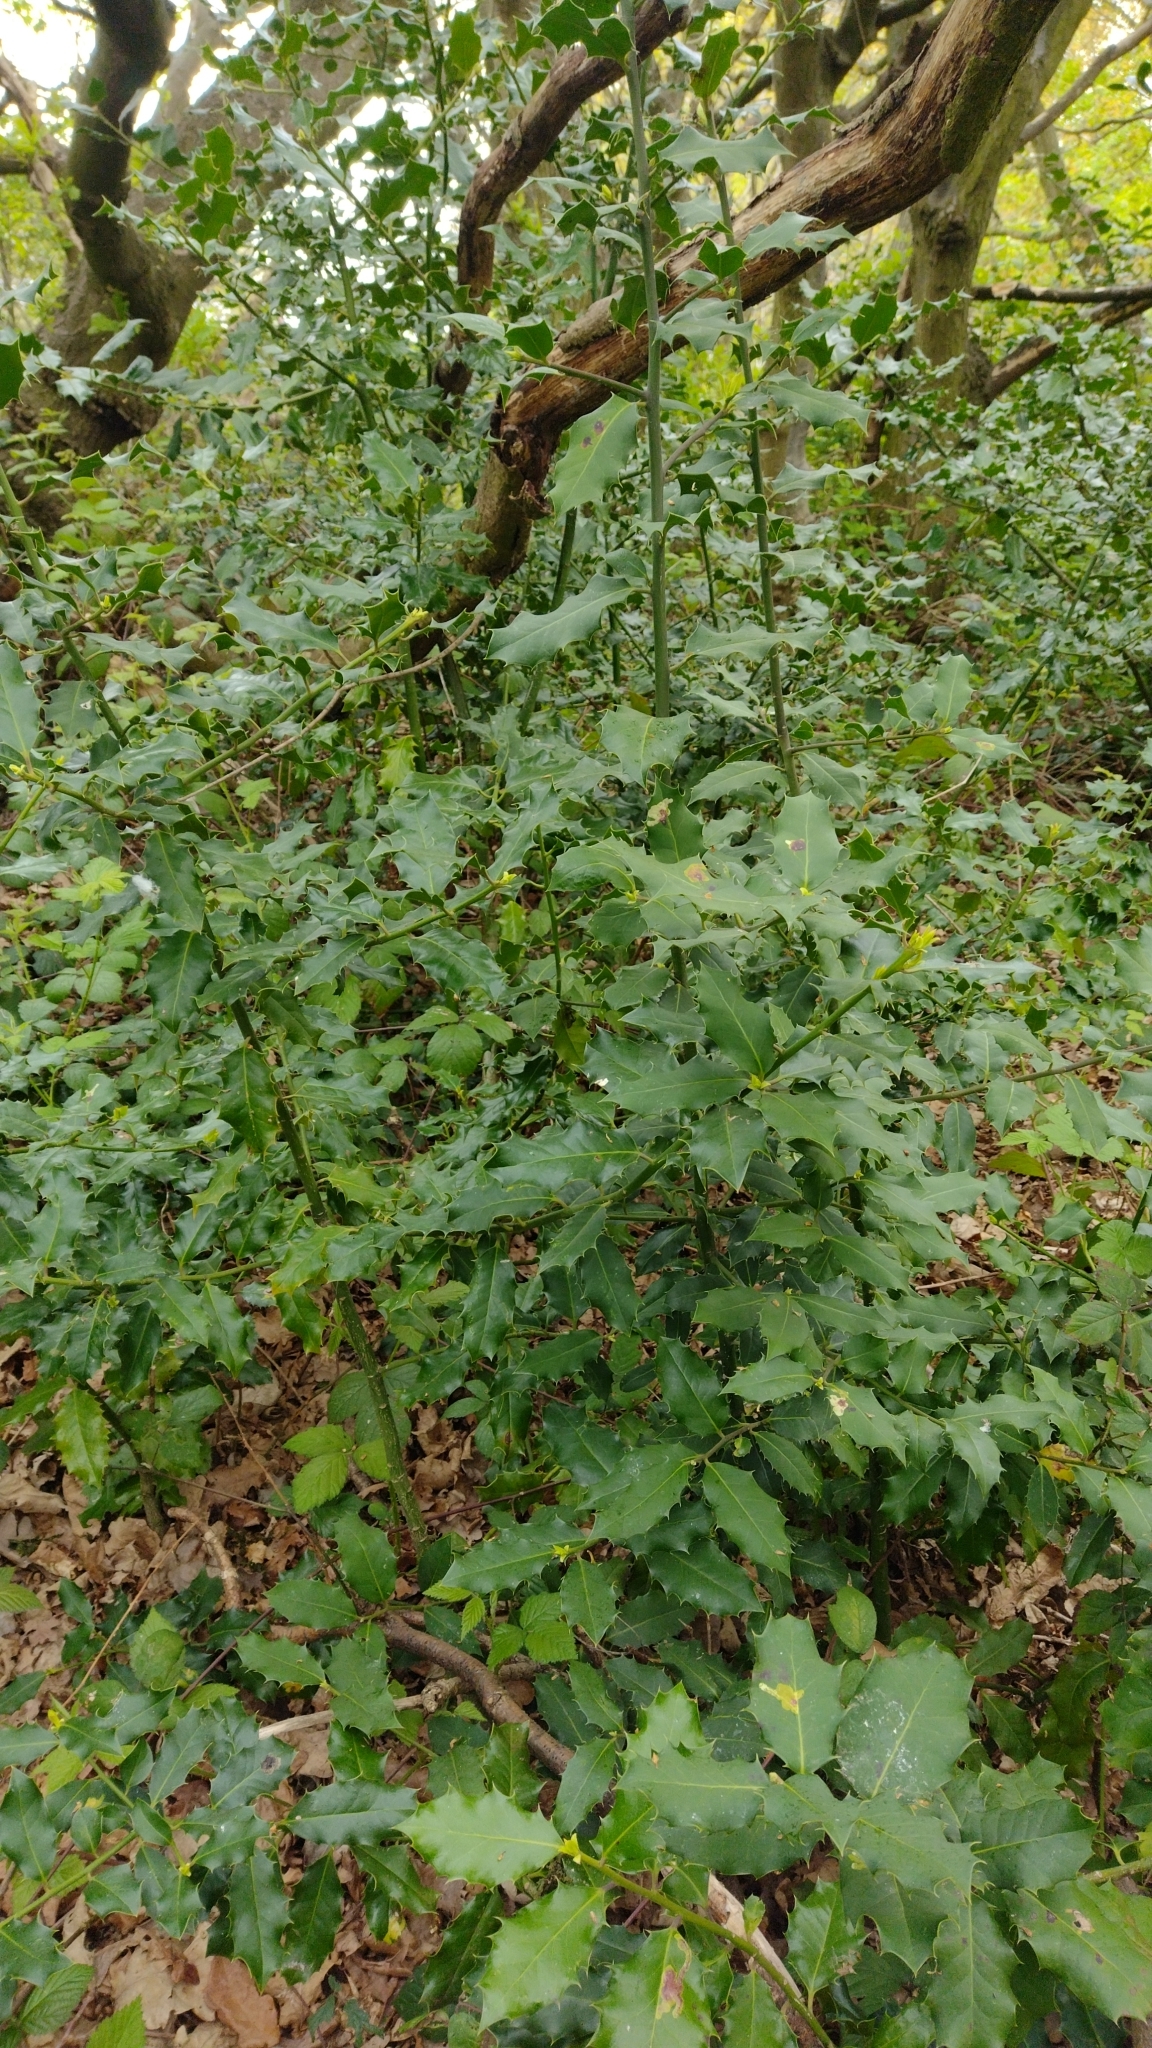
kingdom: Plantae
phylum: Tracheophyta
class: Magnoliopsida
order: Aquifoliales
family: Aquifoliaceae
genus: Ilex
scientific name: Ilex aquifolium
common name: English holly
